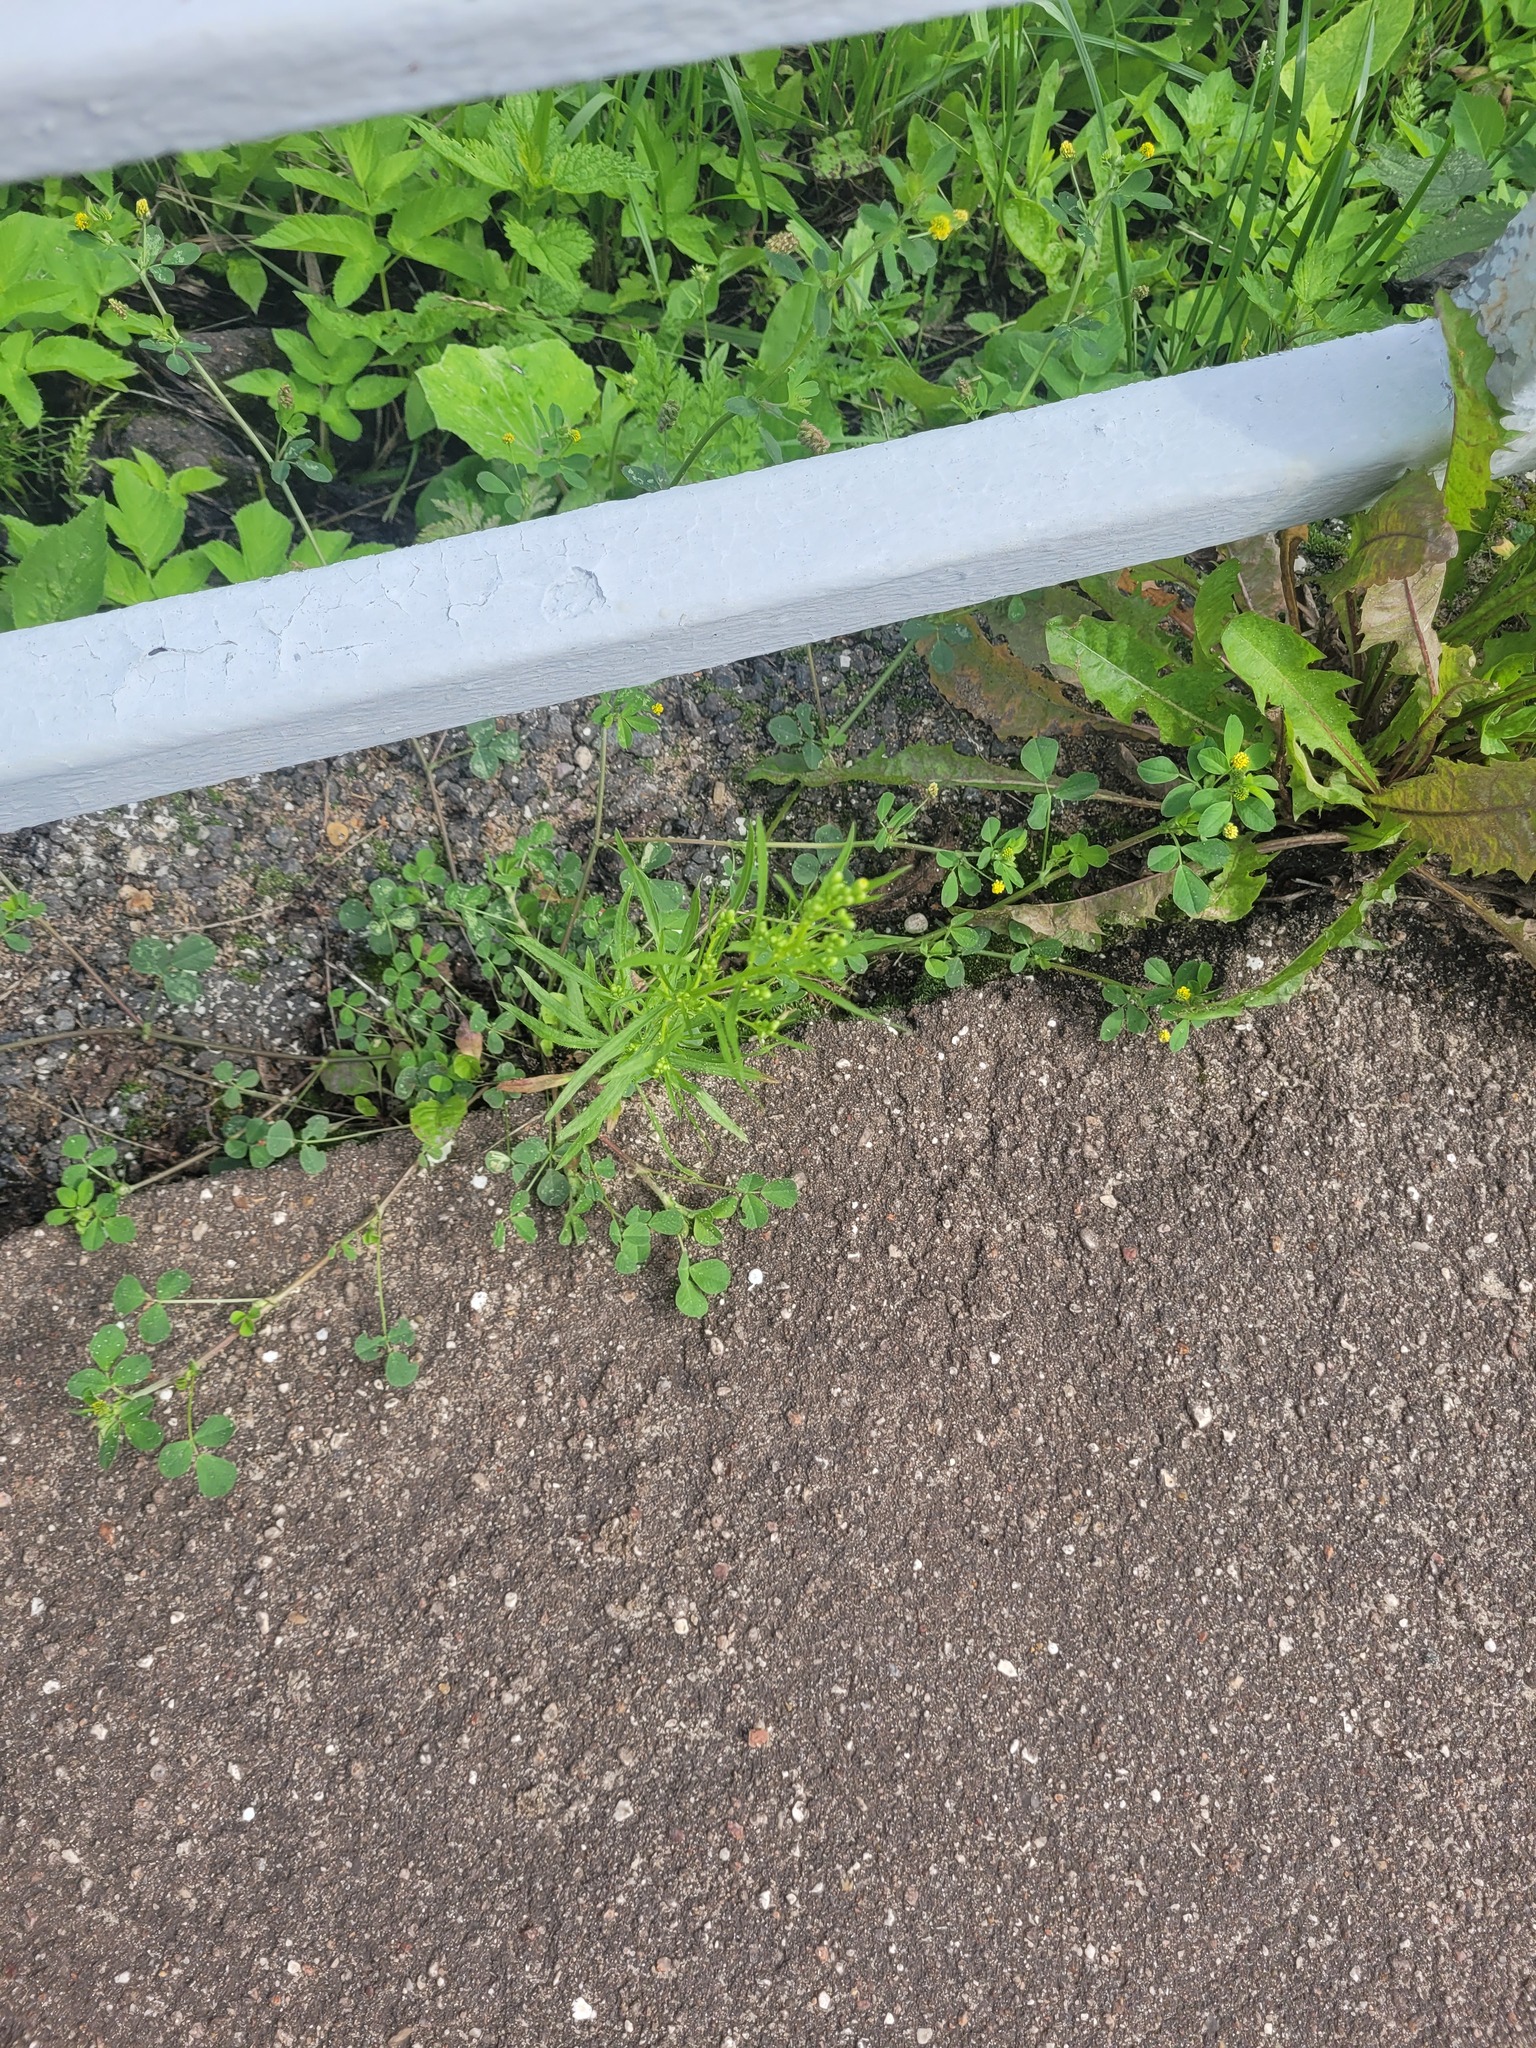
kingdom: Plantae
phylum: Tracheophyta
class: Magnoliopsida
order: Asterales
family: Asteraceae
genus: Erigeron
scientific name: Erigeron canadensis
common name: Canadian fleabane
